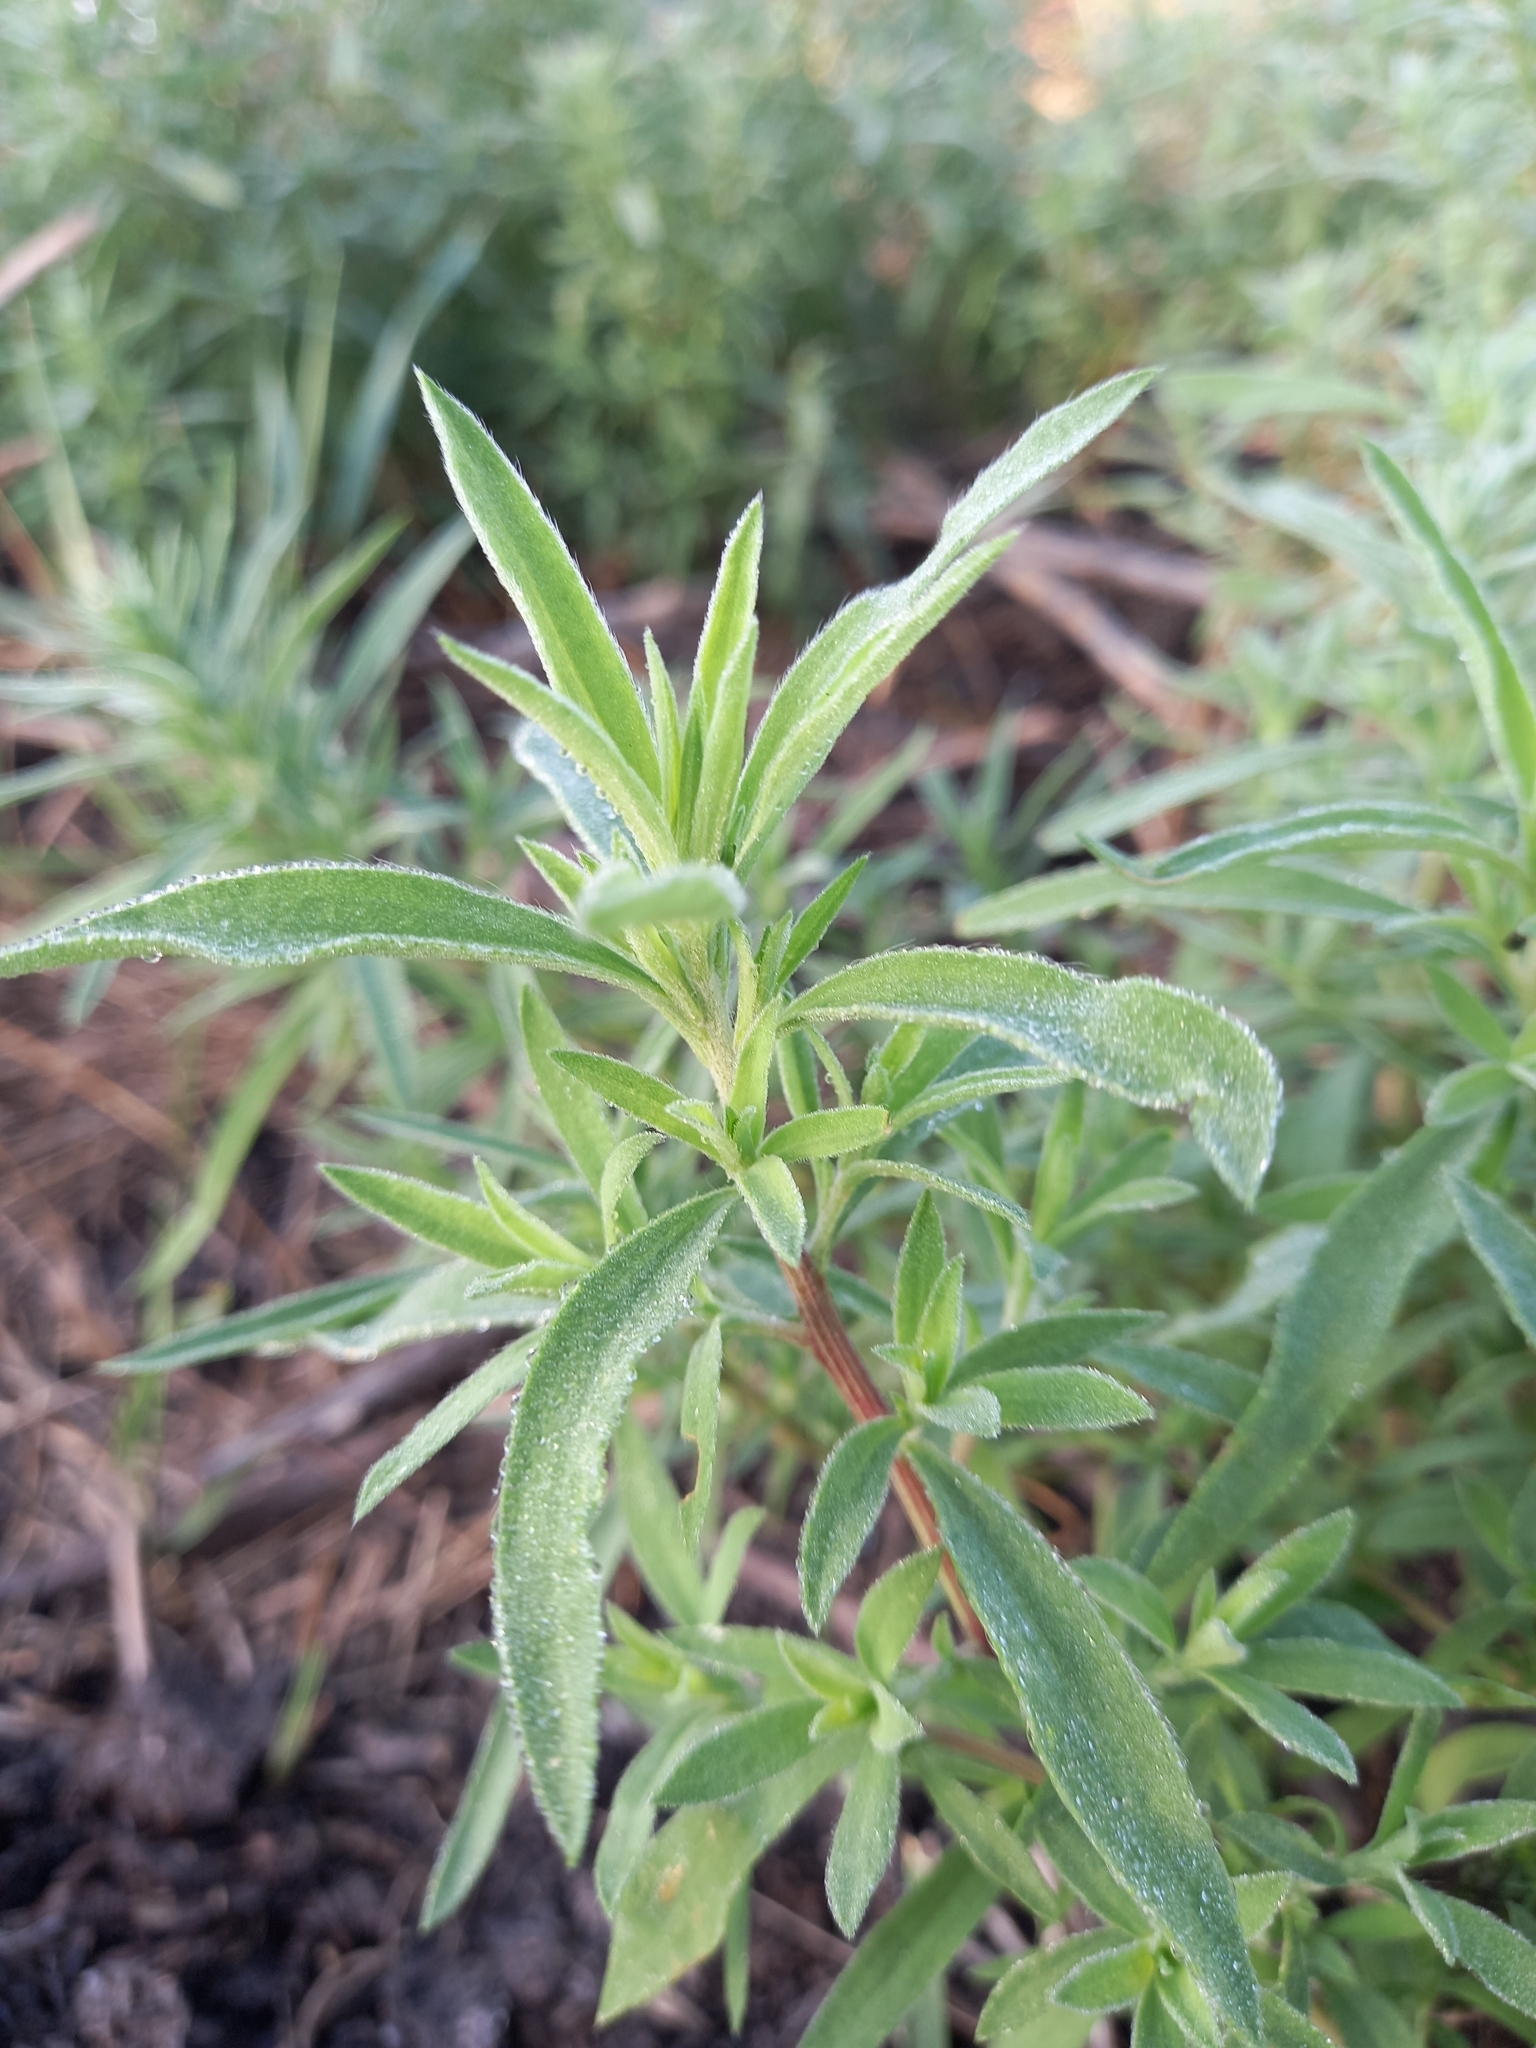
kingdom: Plantae
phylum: Tracheophyta
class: Magnoliopsida
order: Caryophyllales
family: Amaranthaceae
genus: Bassia
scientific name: Bassia scoparia
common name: Belvedere
